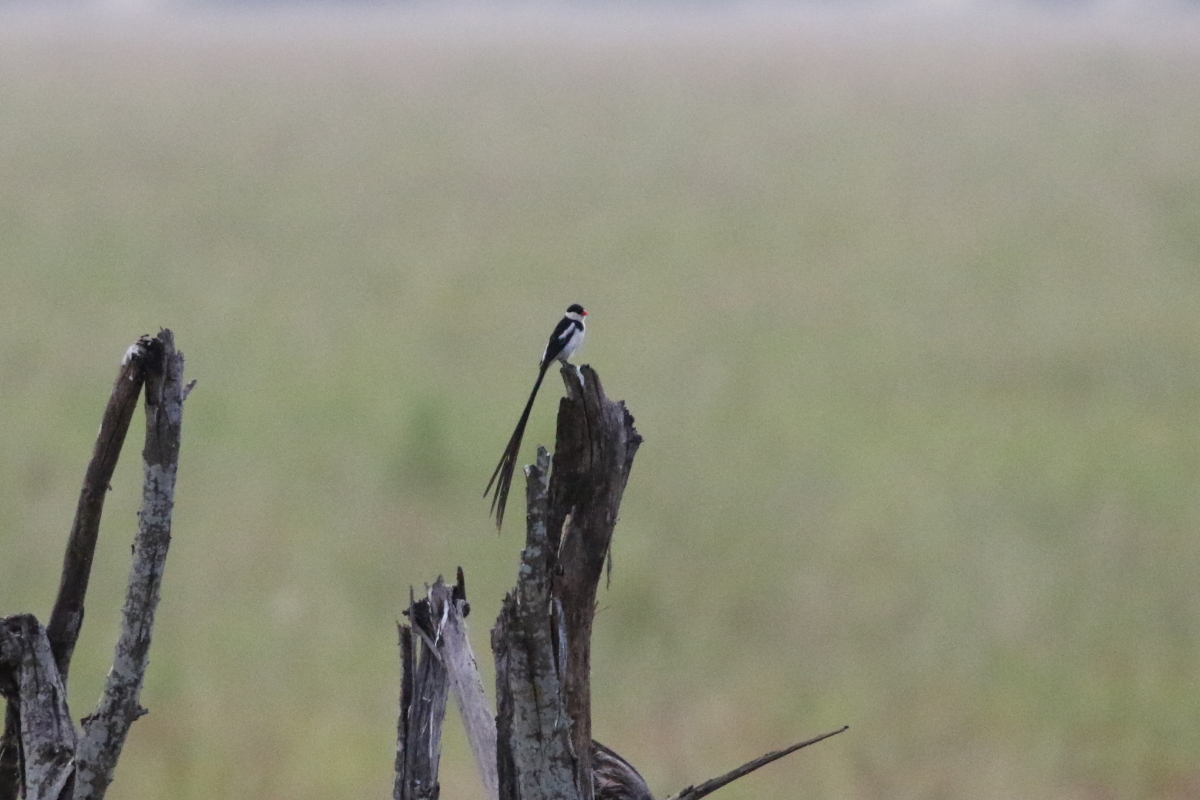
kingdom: Animalia
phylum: Chordata
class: Aves
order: Passeriformes
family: Viduidae
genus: Vidua
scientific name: Vidua macroura
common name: Pin-tailed whydah
